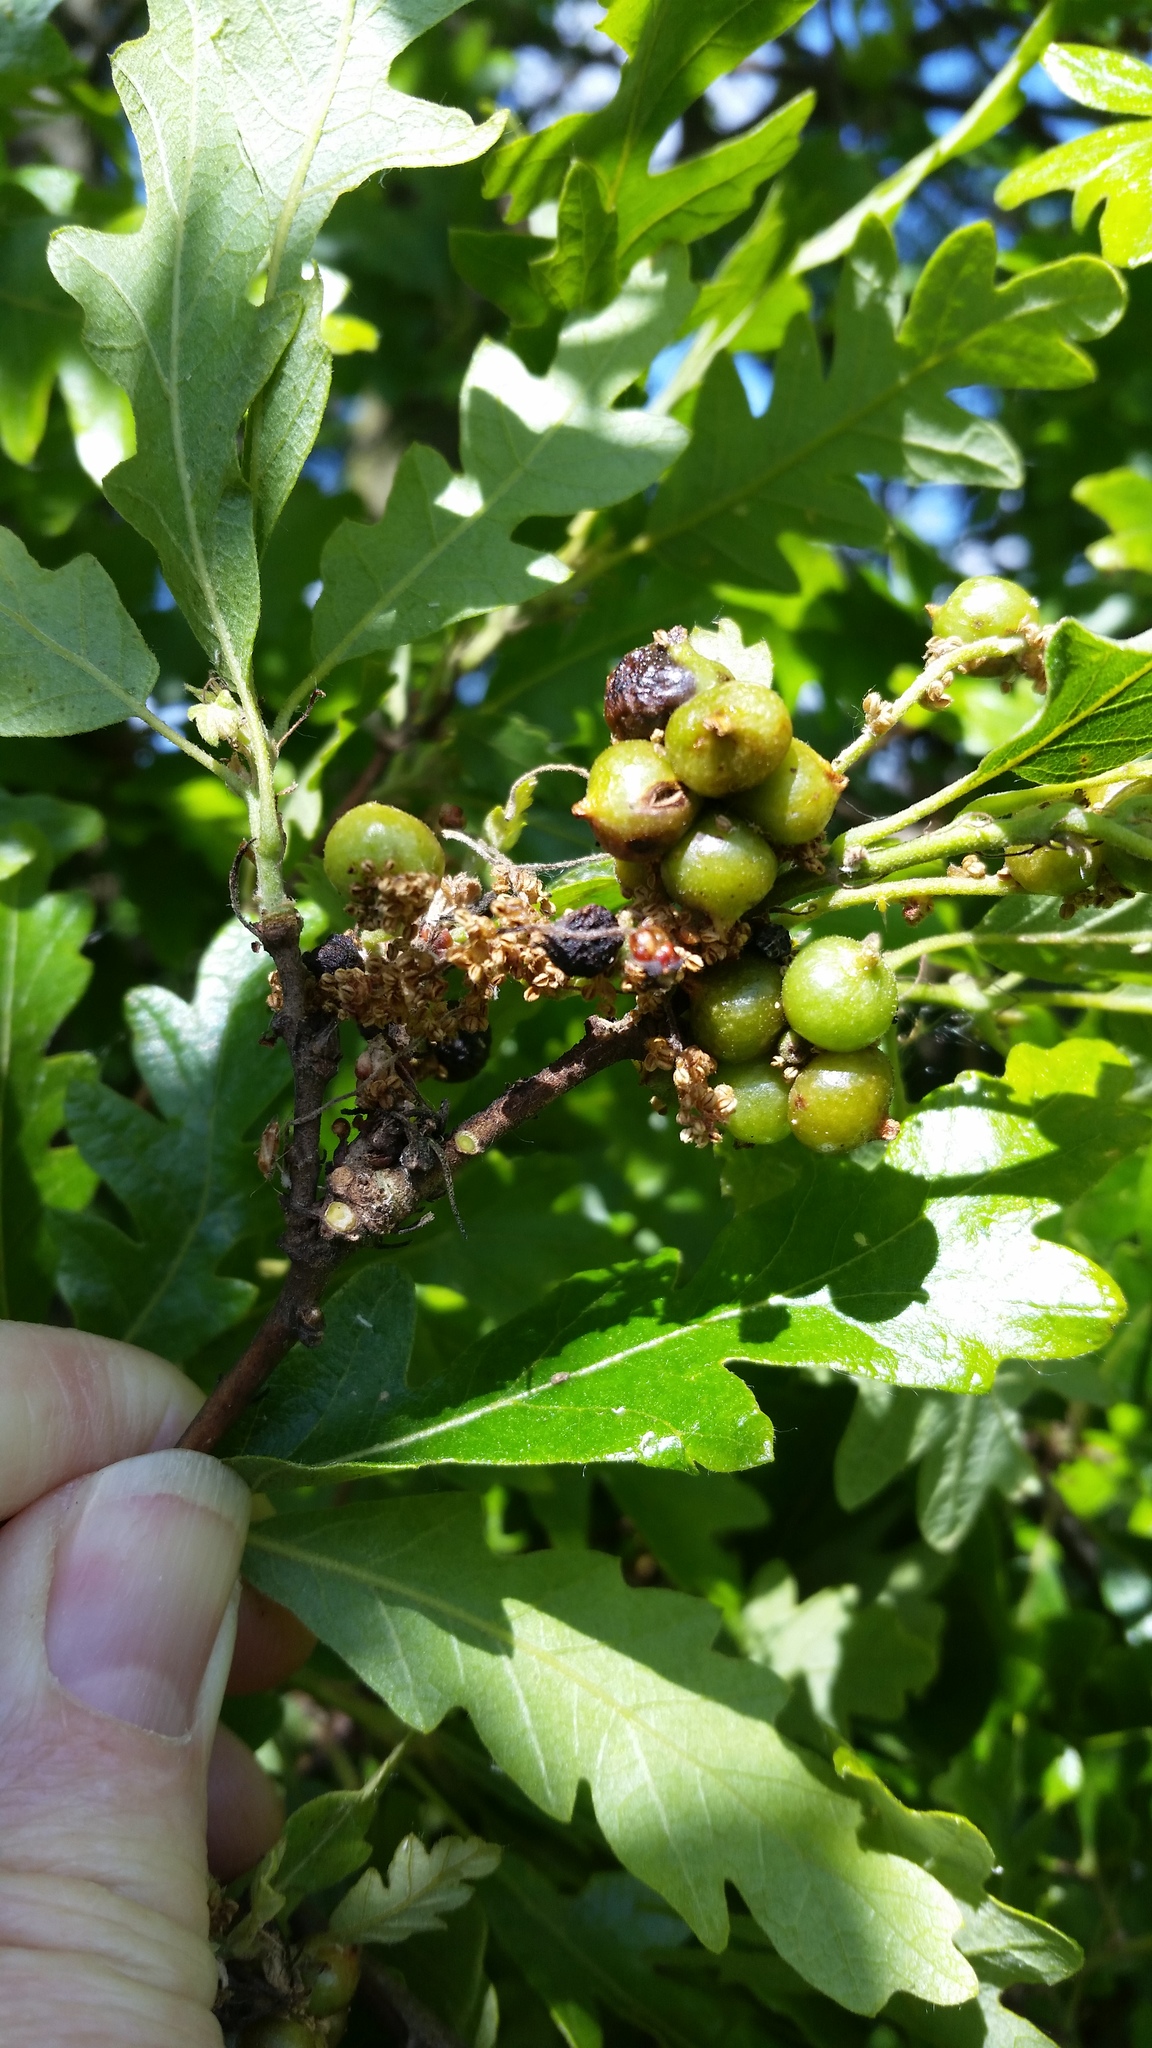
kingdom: Animalia
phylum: Arthropoda
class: Insecta
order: Hymenoptera
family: Cynipidae
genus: Andricus
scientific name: Andricus grossulariae
